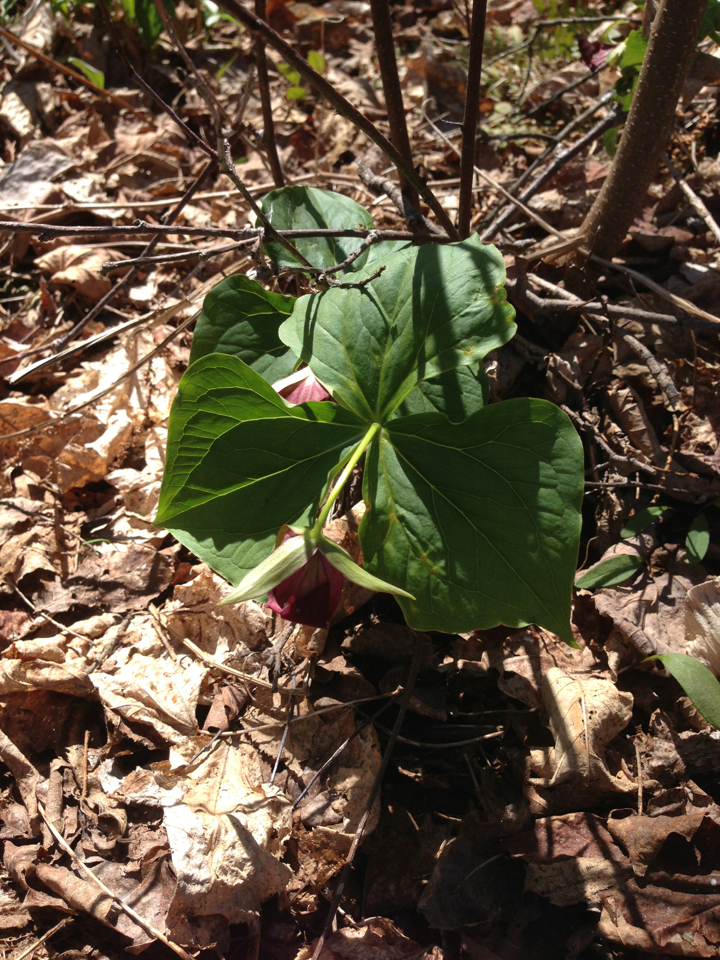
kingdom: Plantae
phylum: Tracheophyta
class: Liliopsida
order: Liliales
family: Melanthiaceae
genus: Trillium
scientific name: Trillium erectum
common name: Purple trillium
